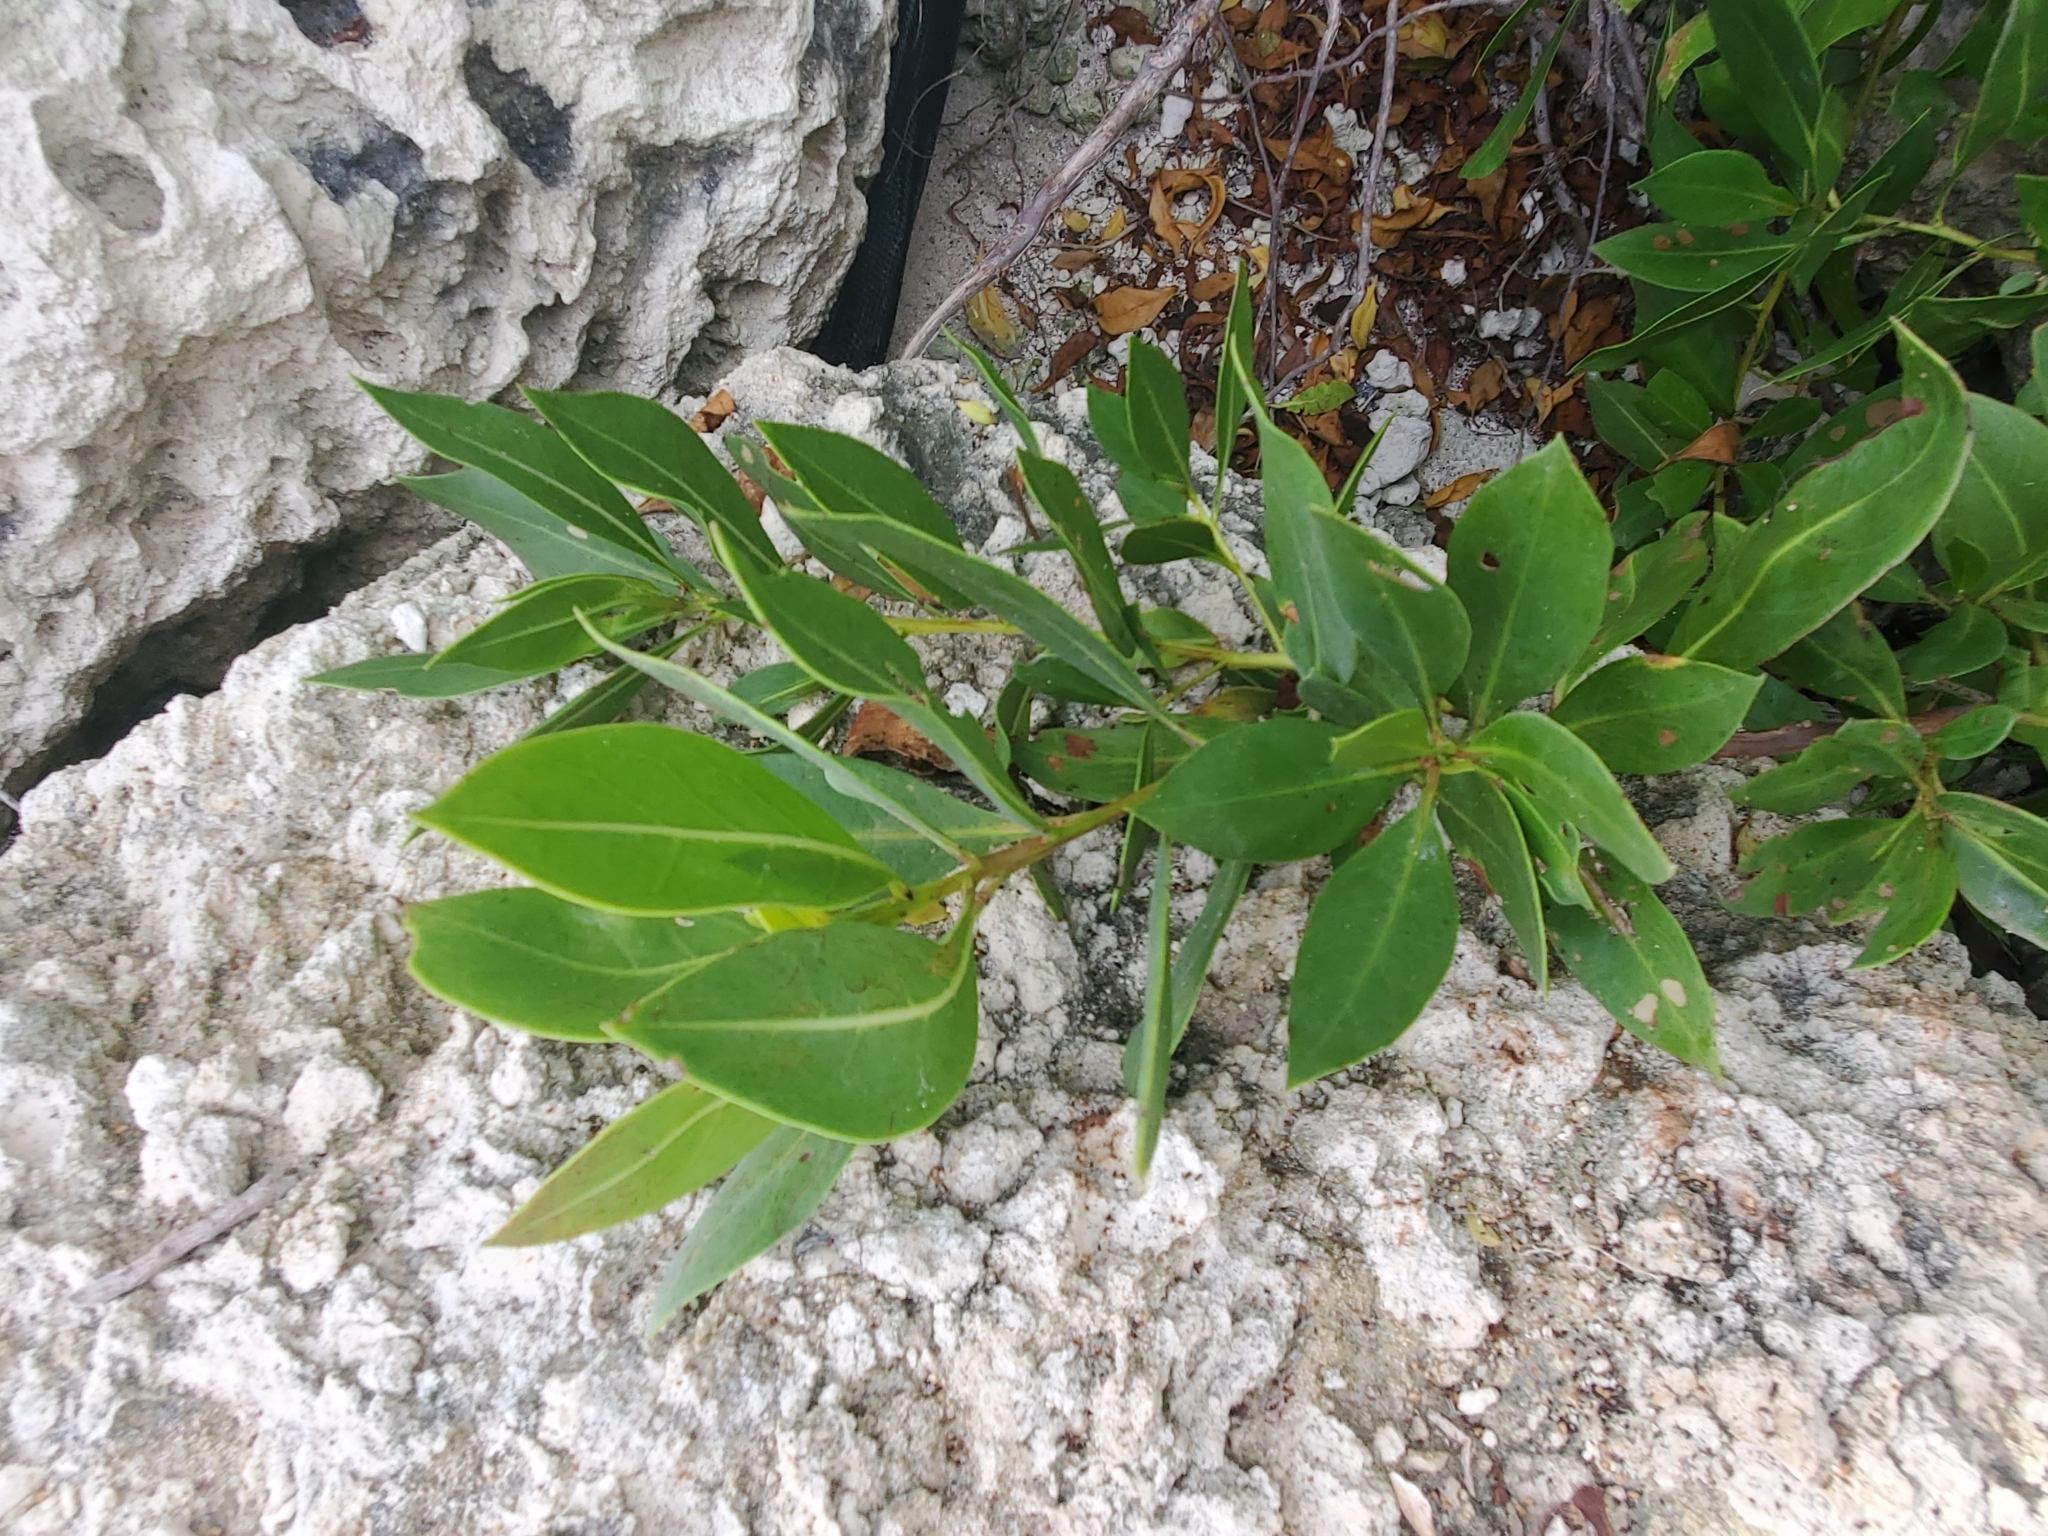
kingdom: Plantae
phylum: Tracheophyta
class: Magnoliopsida
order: Myrtales
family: Combretaceae
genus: Conocarpus
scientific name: Conocarpus erectus
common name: Button mangrove
